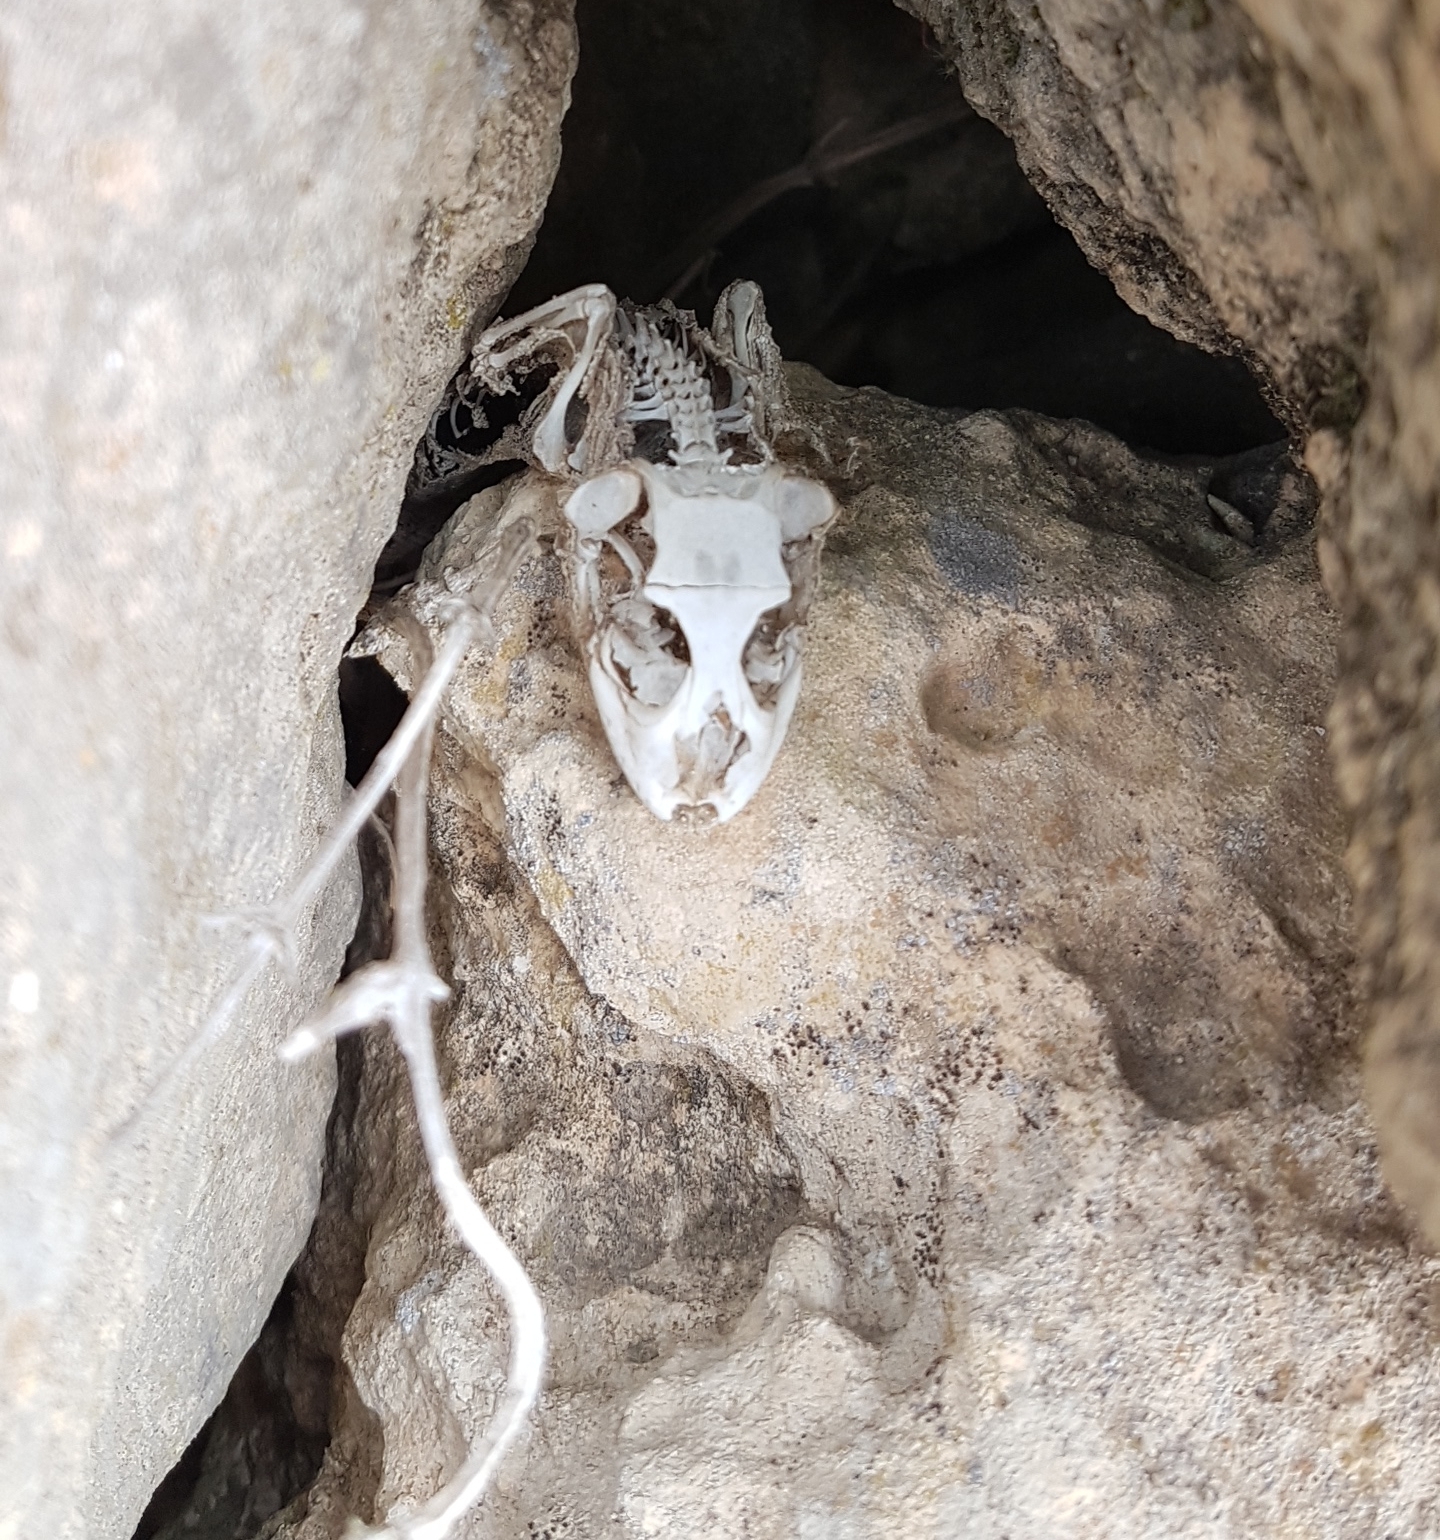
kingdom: Animalia
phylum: Chordata
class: Squamata
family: Phyllodactylidae
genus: Tarentola
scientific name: Tarentola mauritanica
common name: Moorish gecko
